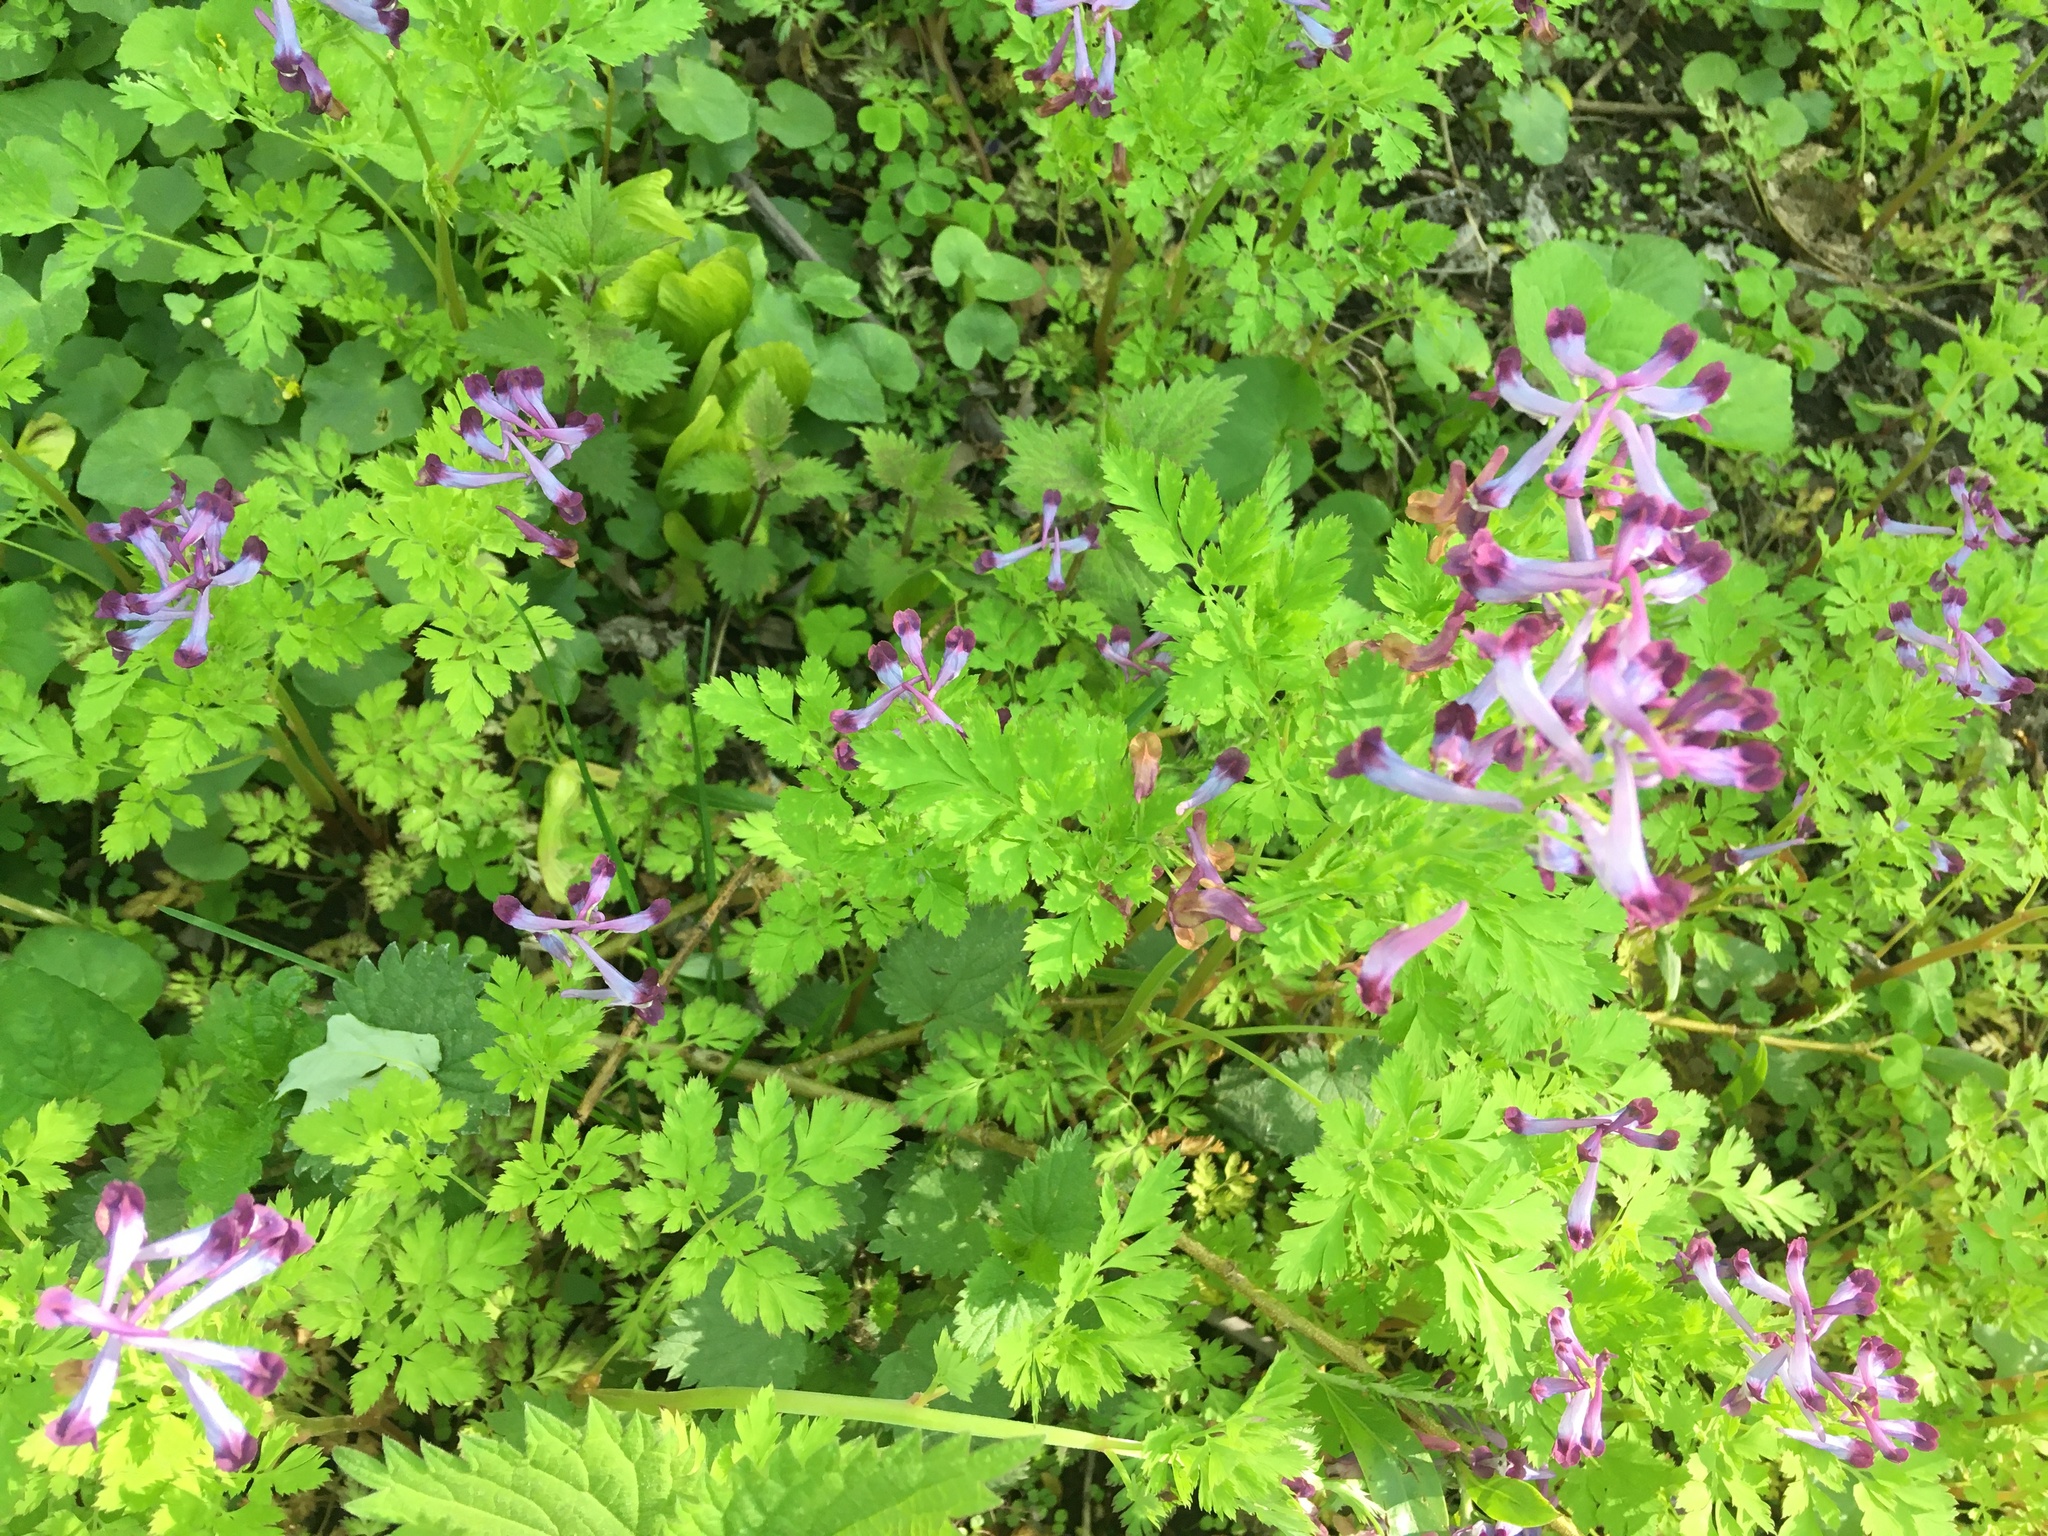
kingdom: Plantae
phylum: Tracheophyta
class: Magnoliopsida
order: Ranunculales
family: Papaveraceae
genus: Corydalis
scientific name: Corydalis incisa
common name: Incised fumewort
